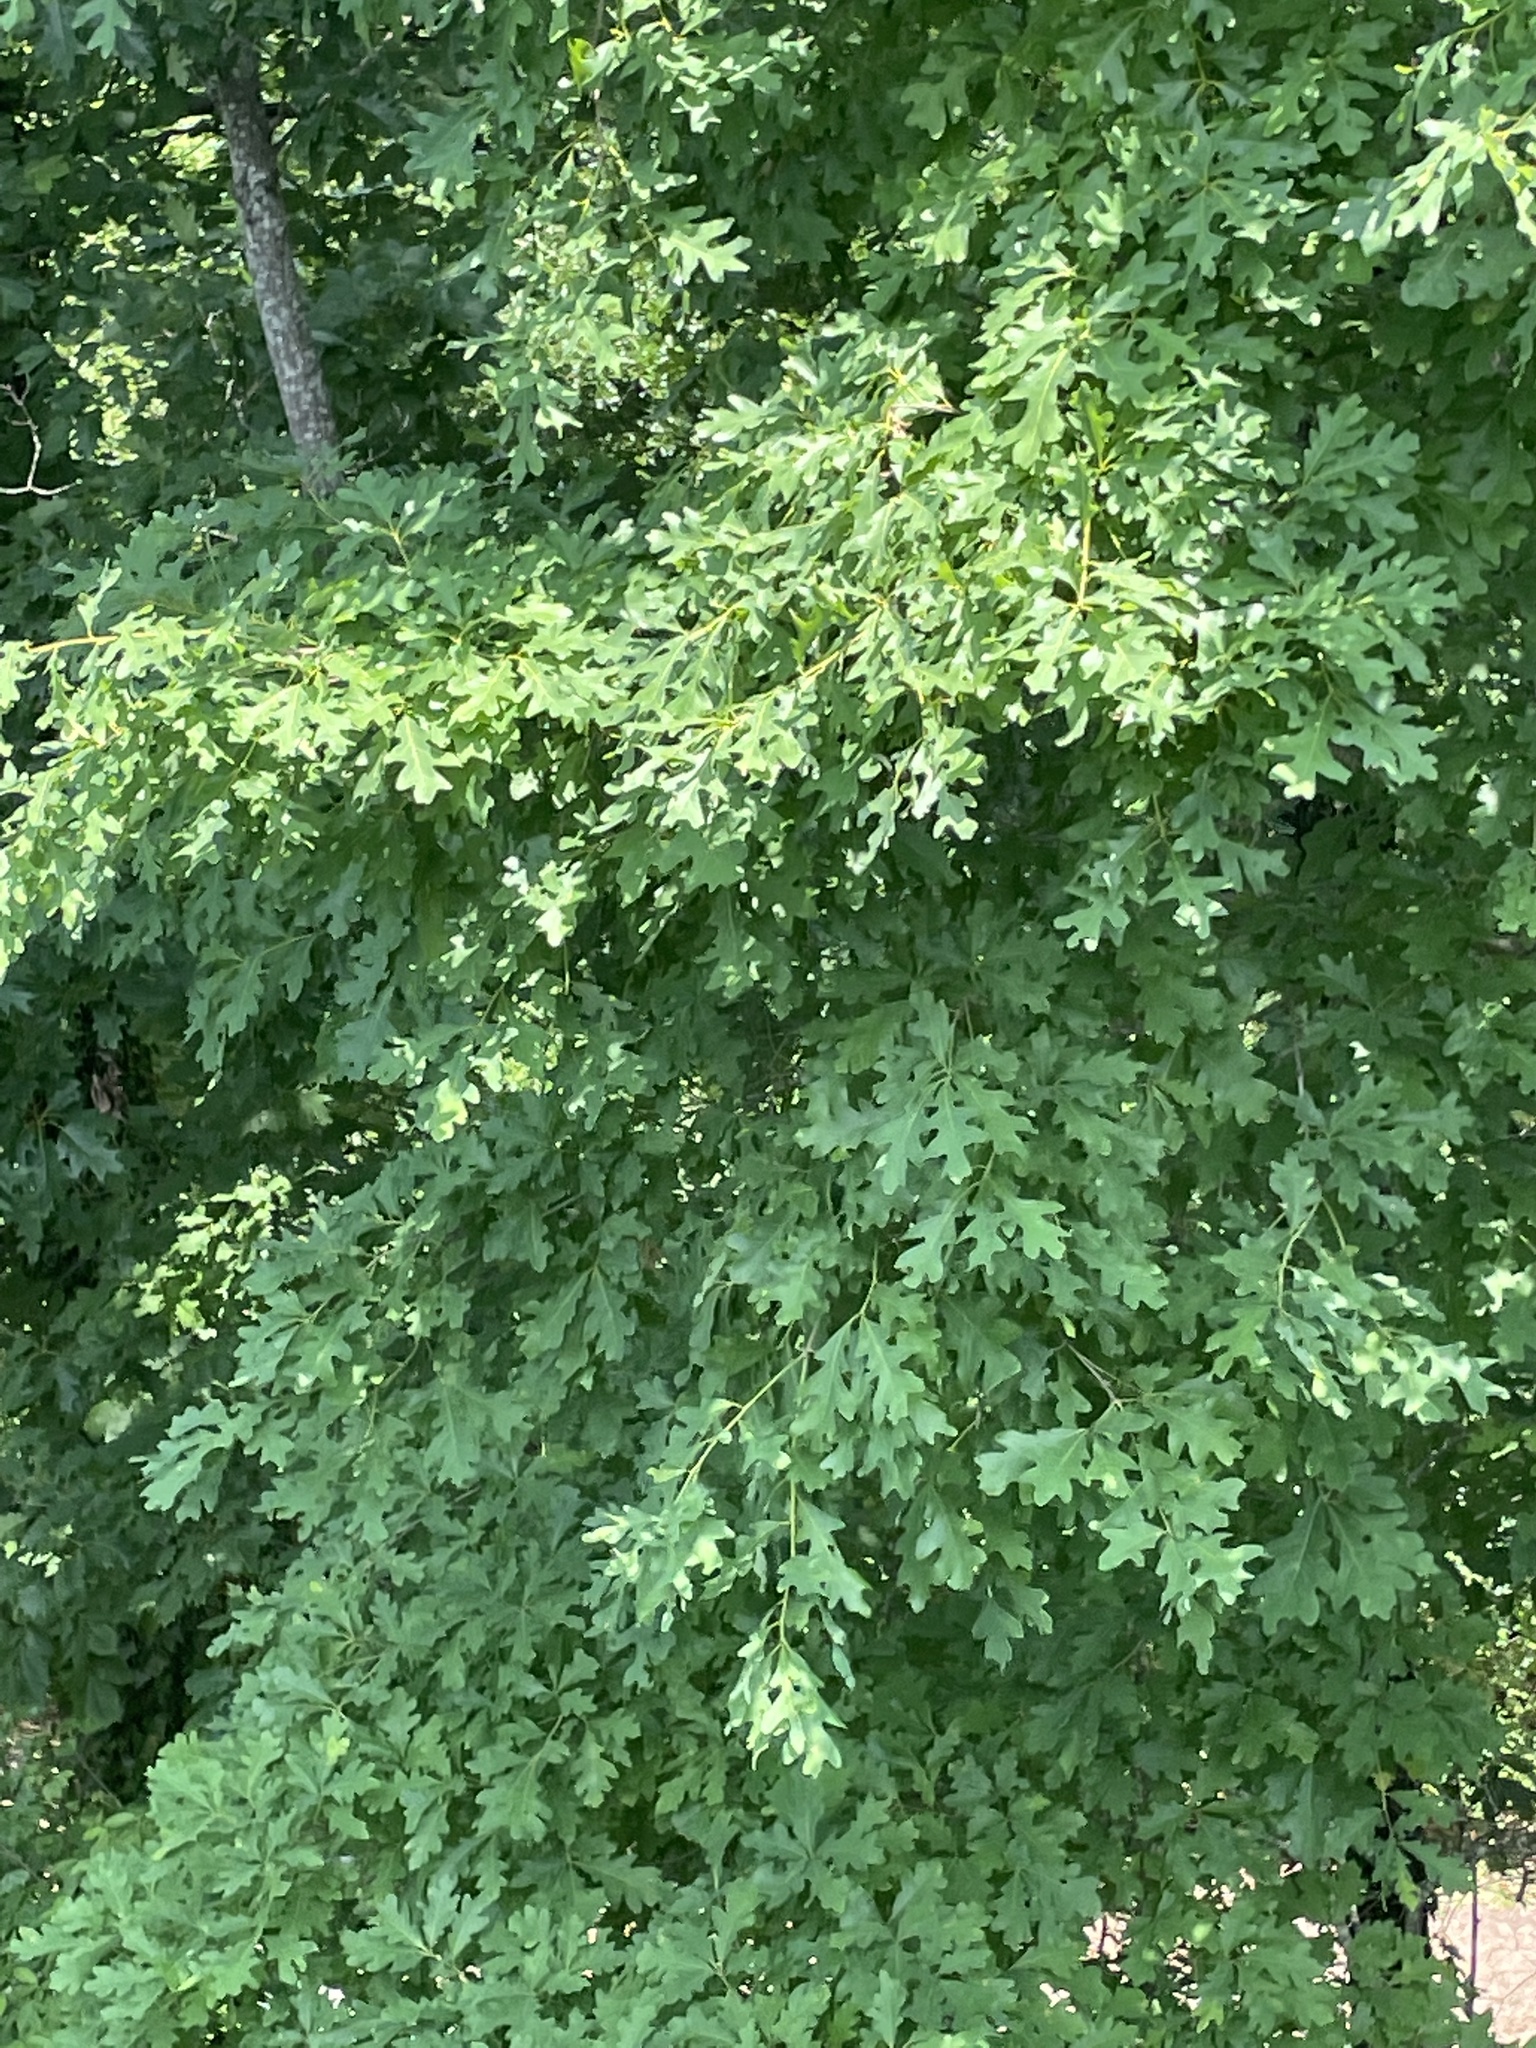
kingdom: Plantae
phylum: Tracheophyta
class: Magnoliopsida
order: Fagales
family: Fagaceae
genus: Quercus
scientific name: Quercus alba
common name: White oak
